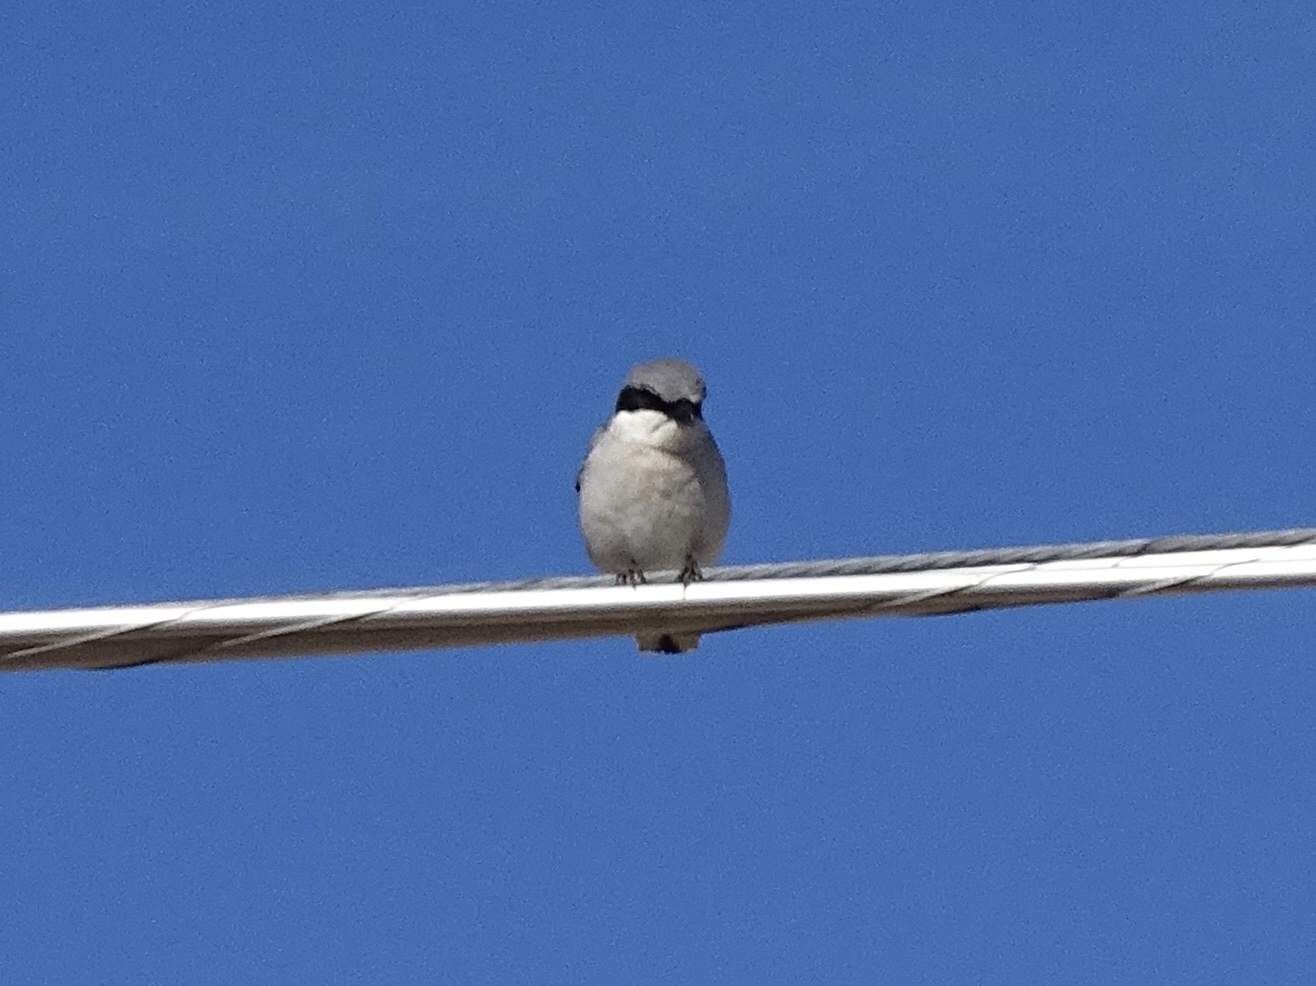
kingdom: Animalia
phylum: Chordata
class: Aves
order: Passeriformes
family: Laniidae
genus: Lanius
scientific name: Lanius ludovicianus
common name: Loggerhead shrike
